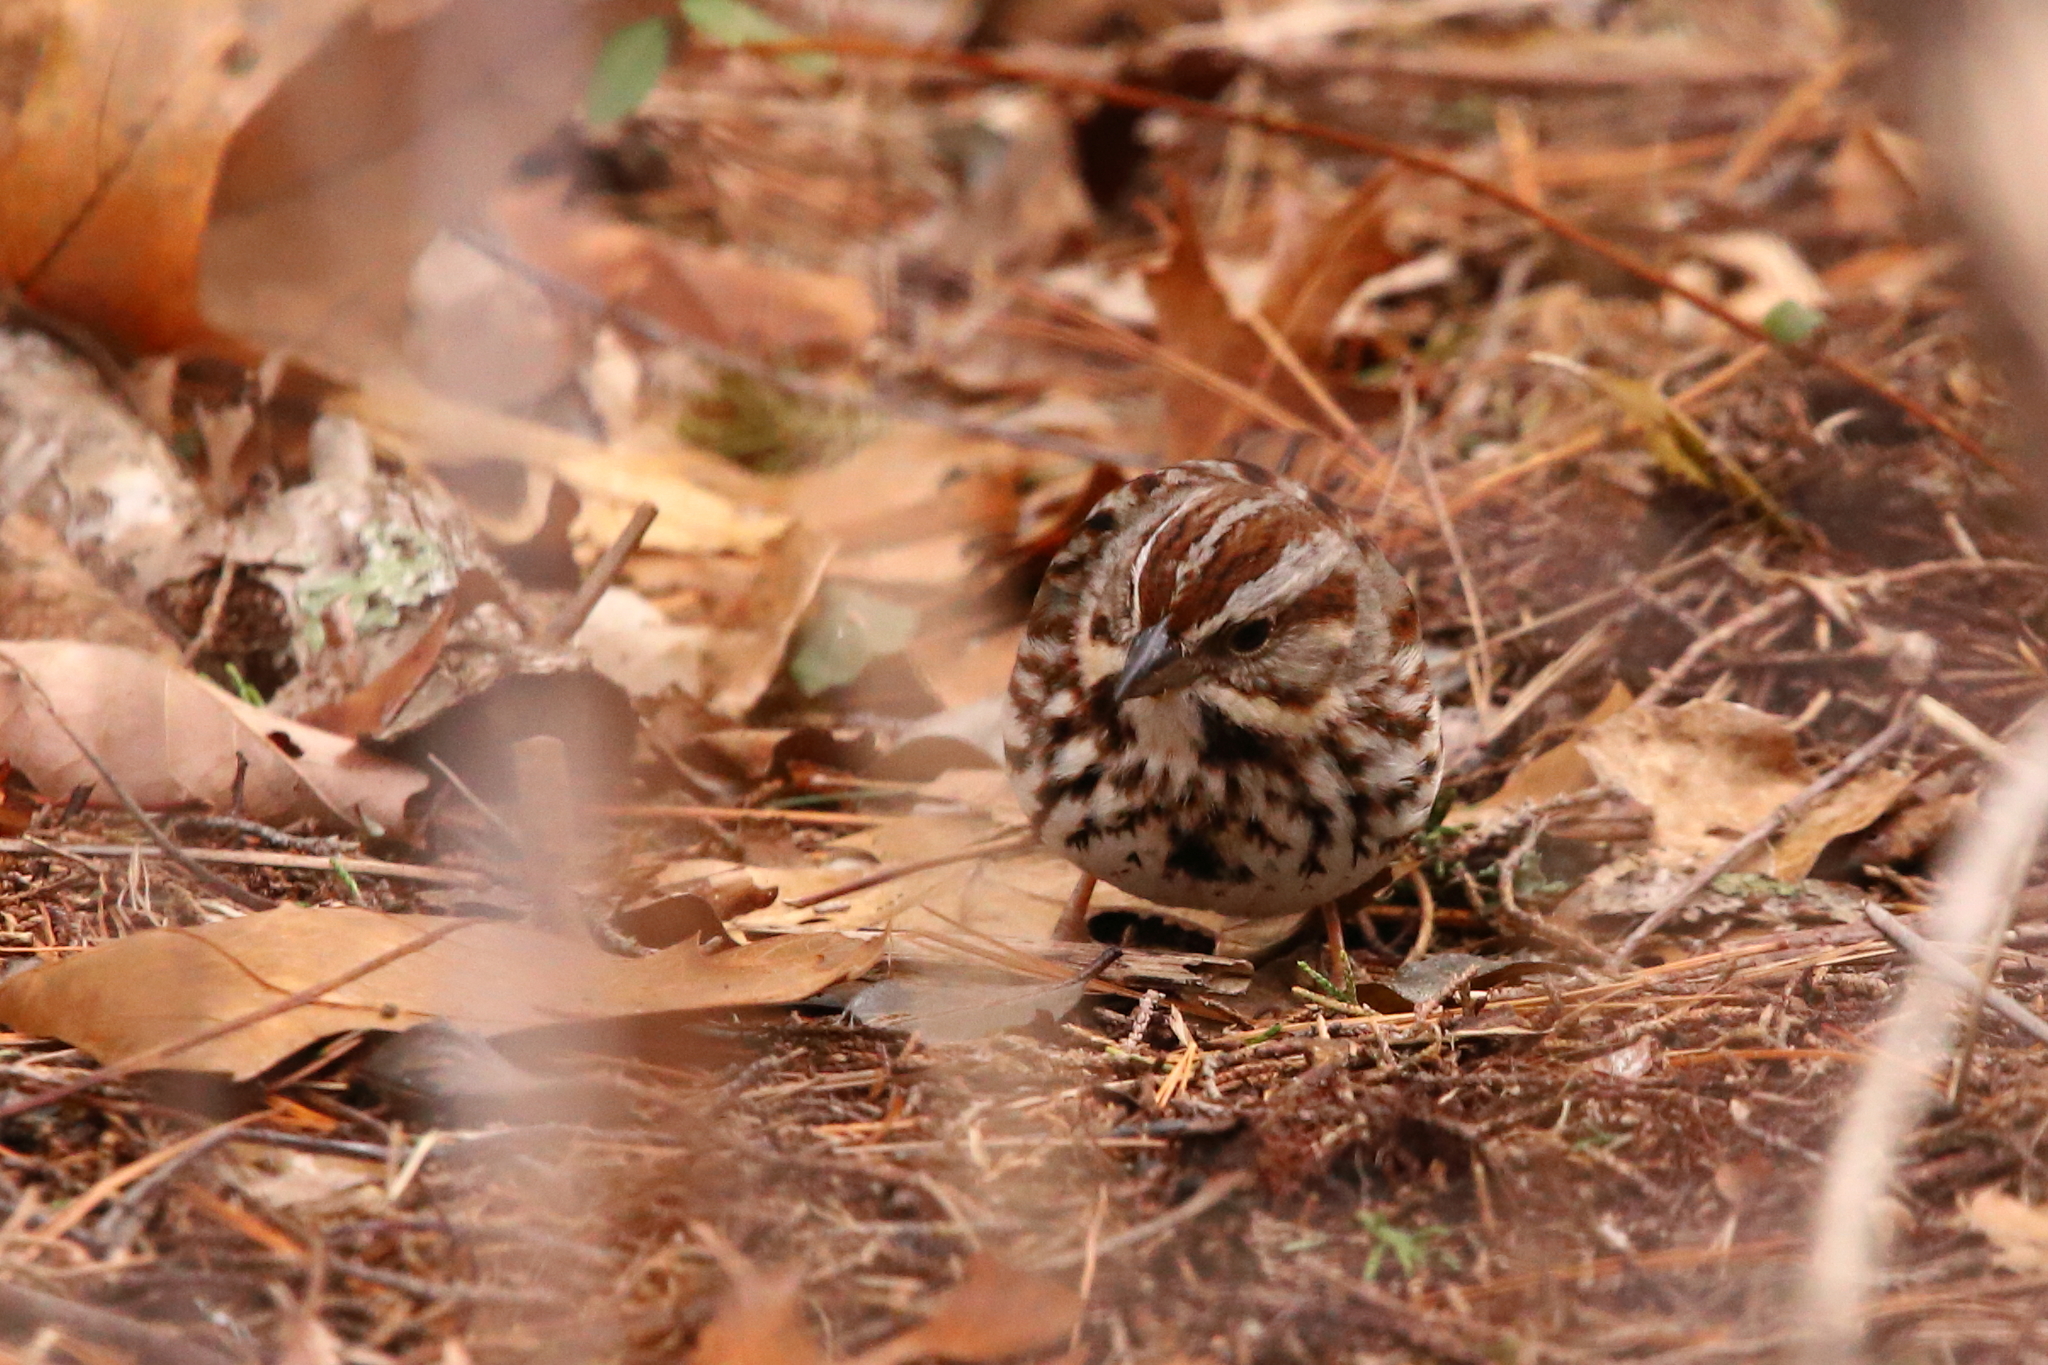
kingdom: Animalia
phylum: Chordata
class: Aves
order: Passeriformes
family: Passerellidae
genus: Melospiza
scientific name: Melospiza melodia
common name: Song sparrow
